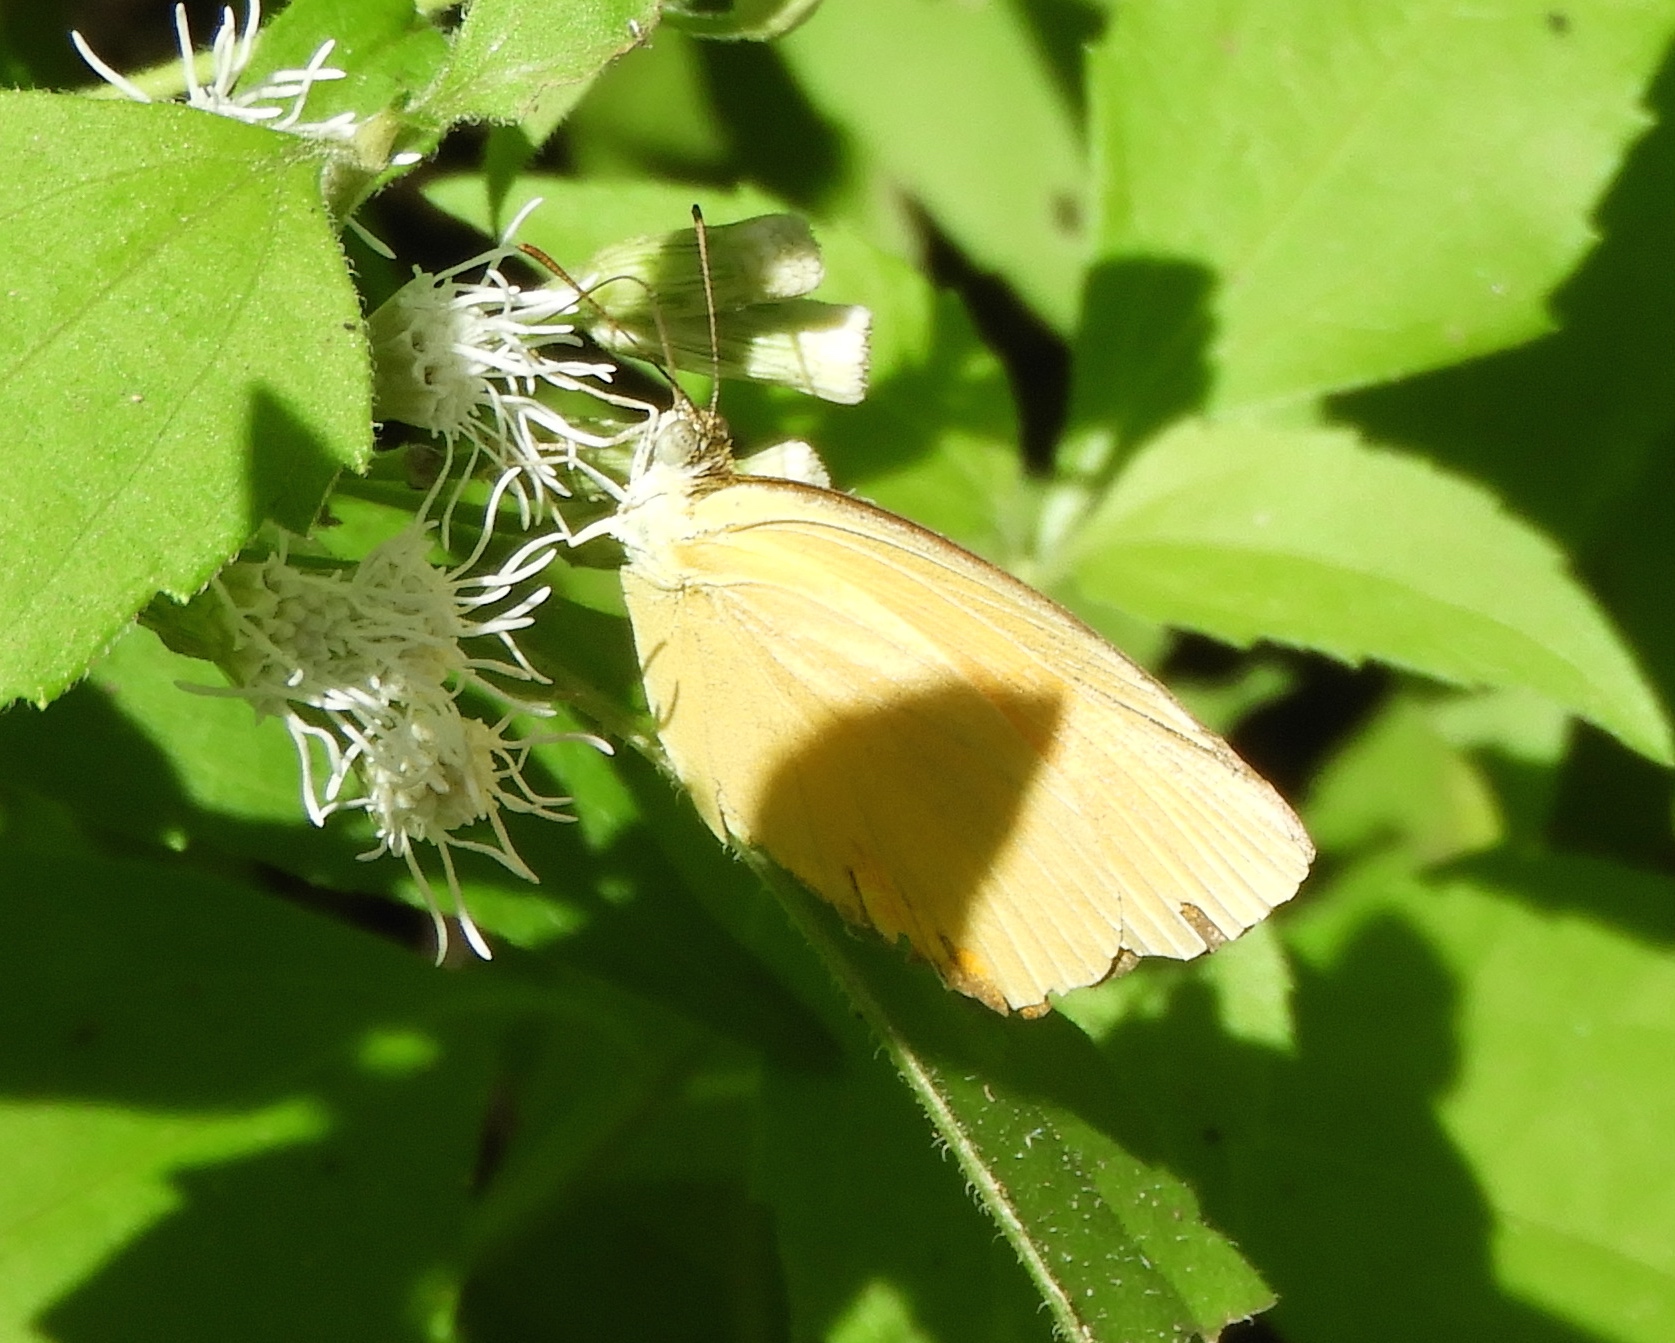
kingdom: Animalia
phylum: Arthropoda
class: Insecta
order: Lepidoptera
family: Pieridae
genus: Pyrisitia
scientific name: Pyrisitia proterpia
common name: Tailed orange
